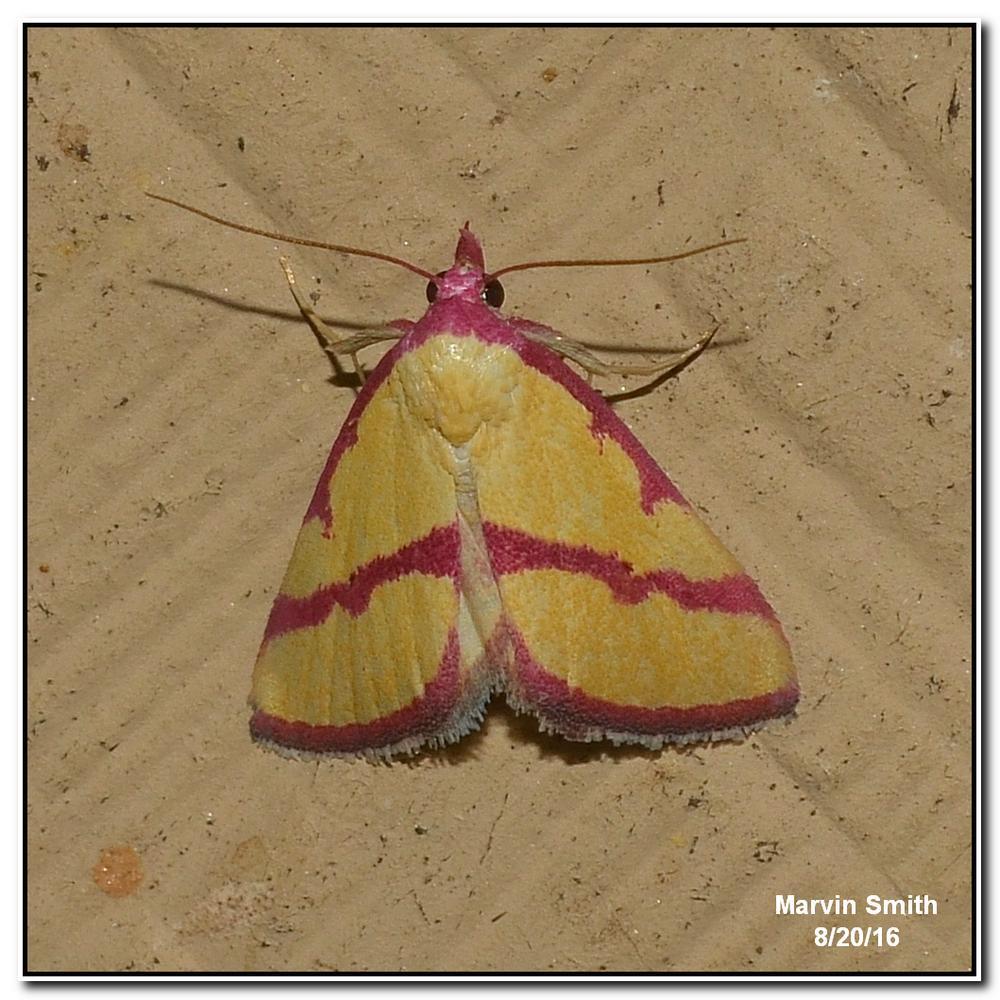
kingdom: Animalia
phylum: Arthropoda
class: Insecta
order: Lepidoptera
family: Erebidae
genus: Phytometra
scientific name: Phytometra ernestinana
